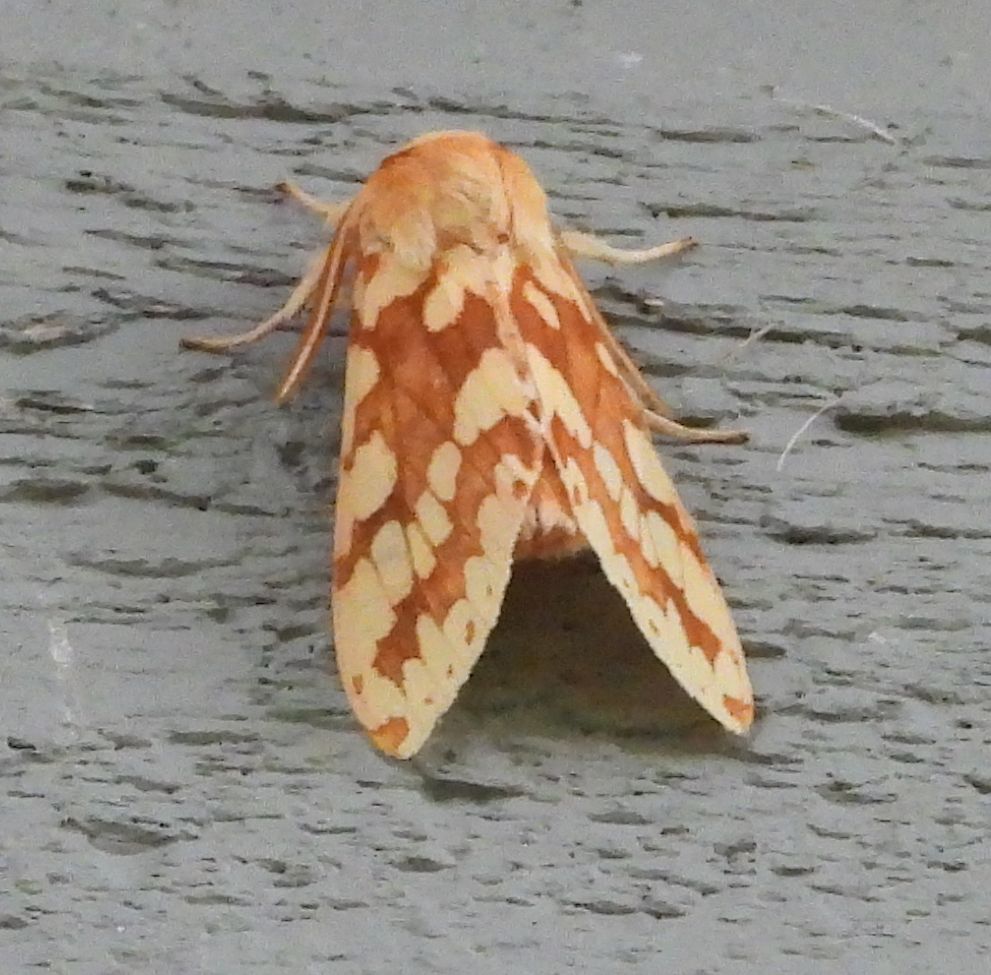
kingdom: Animalia
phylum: Arthropoda
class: Insecta
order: Lepidoptera
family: Erebidae
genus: Lophocampa
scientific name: Lophocampa maculata
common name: Spotted tussock moth
